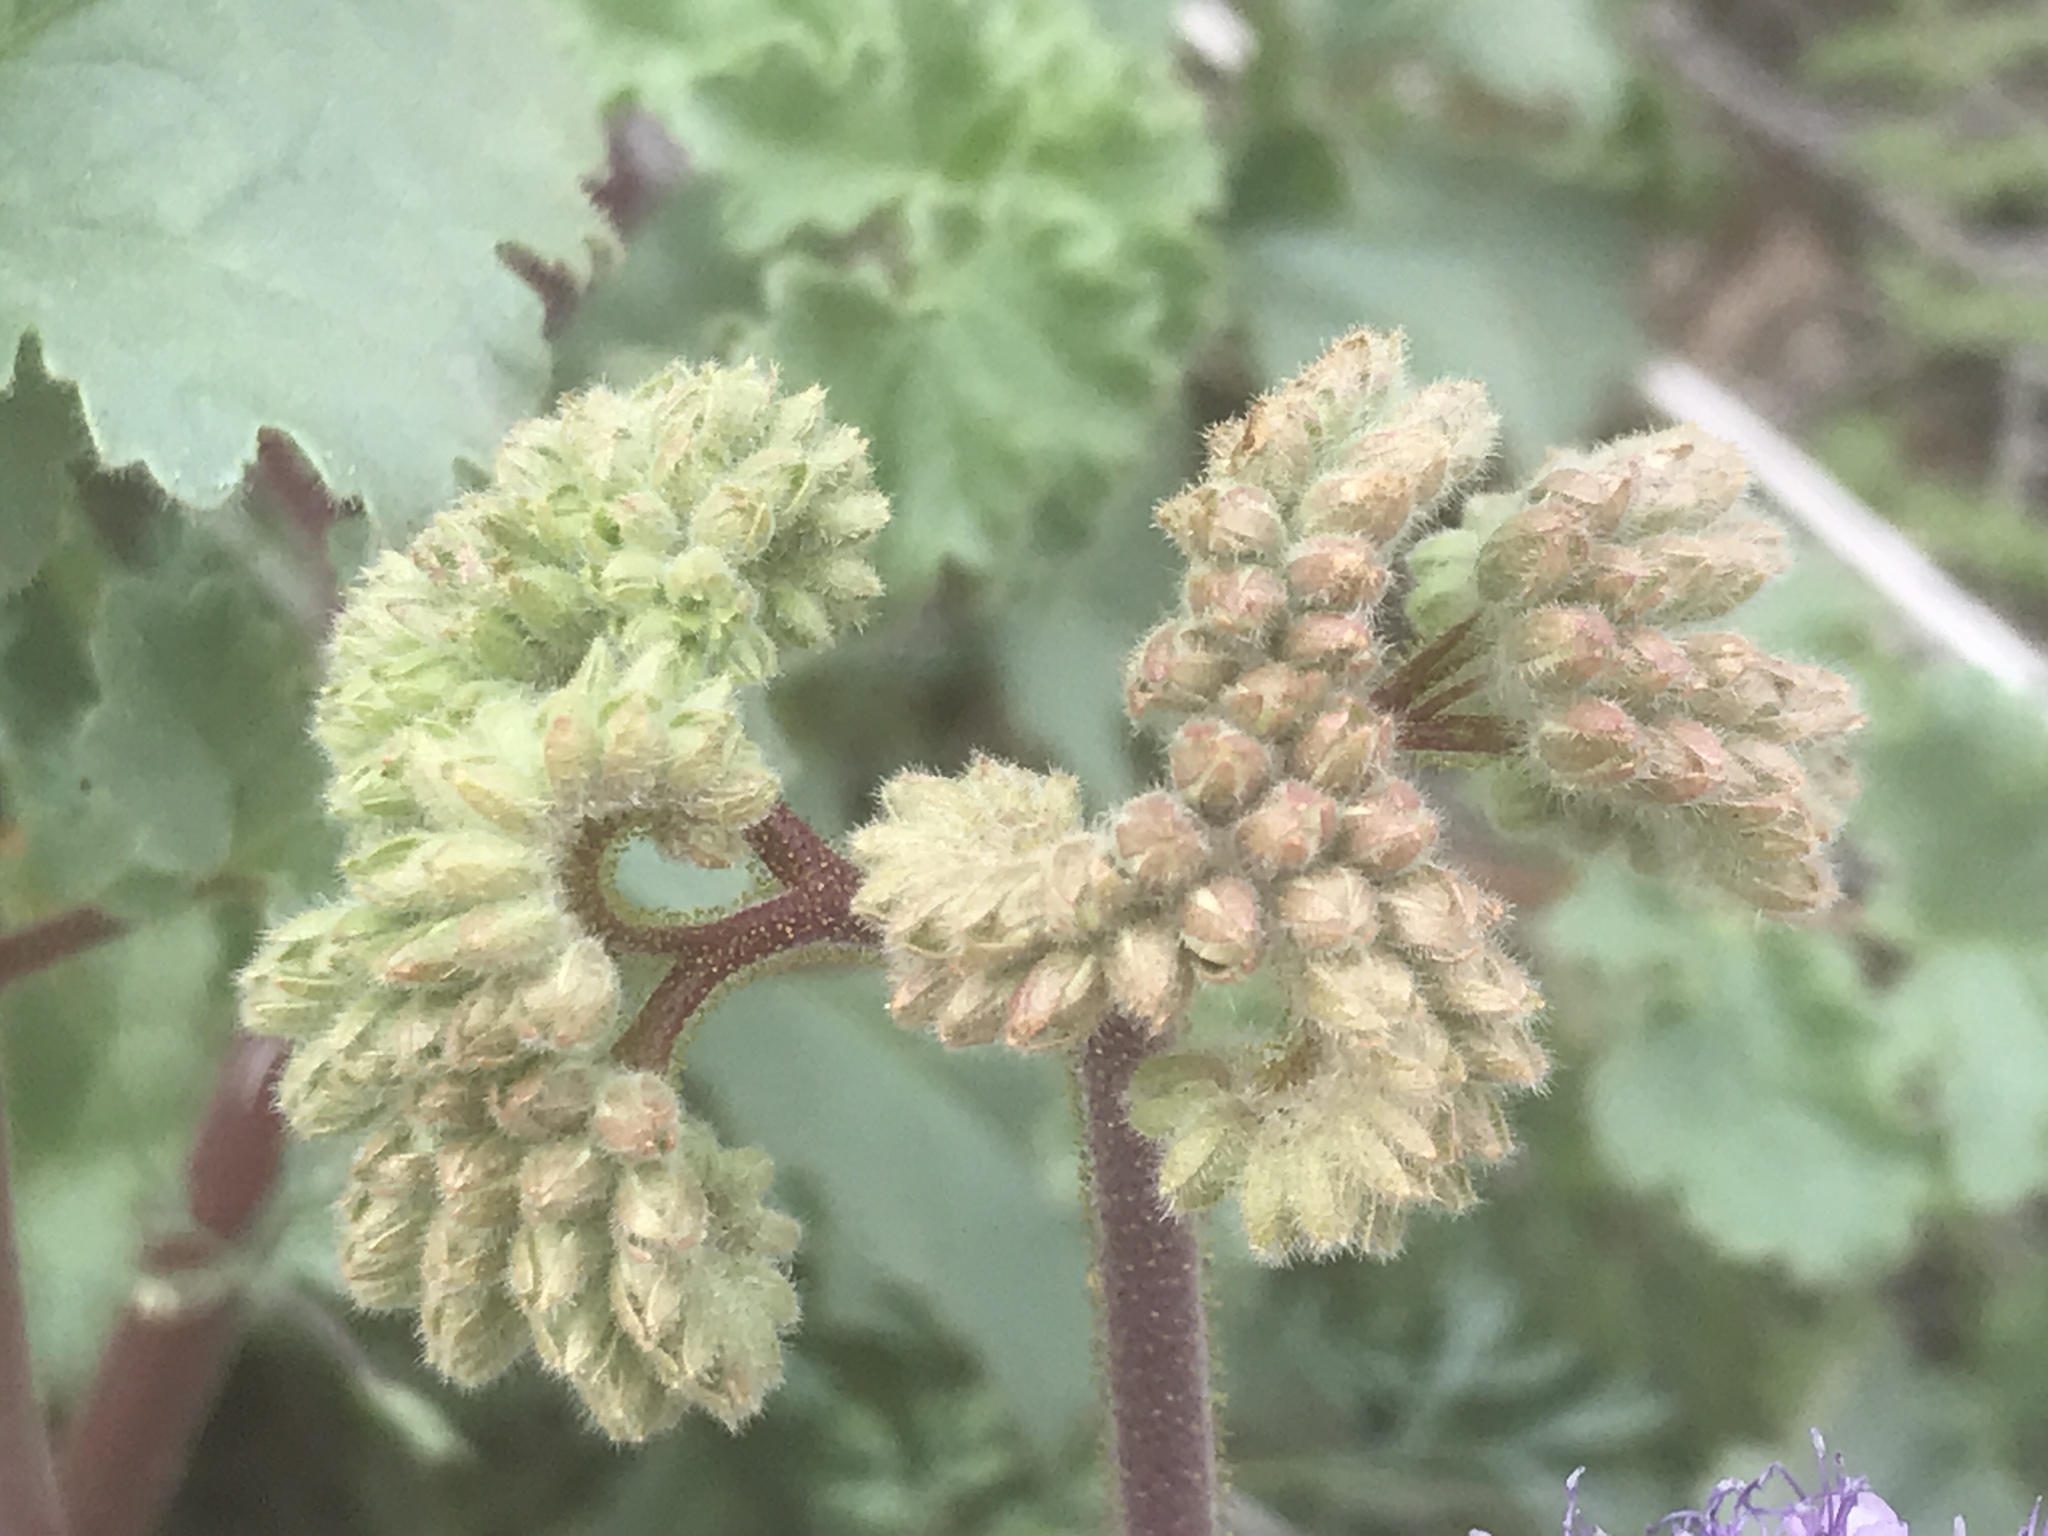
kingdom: Plantae
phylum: Tracheophyta
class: Magnoliopsida
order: Boraginales
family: Hydrophyllaceae
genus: Phacelia
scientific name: Phacelia pedicellata
